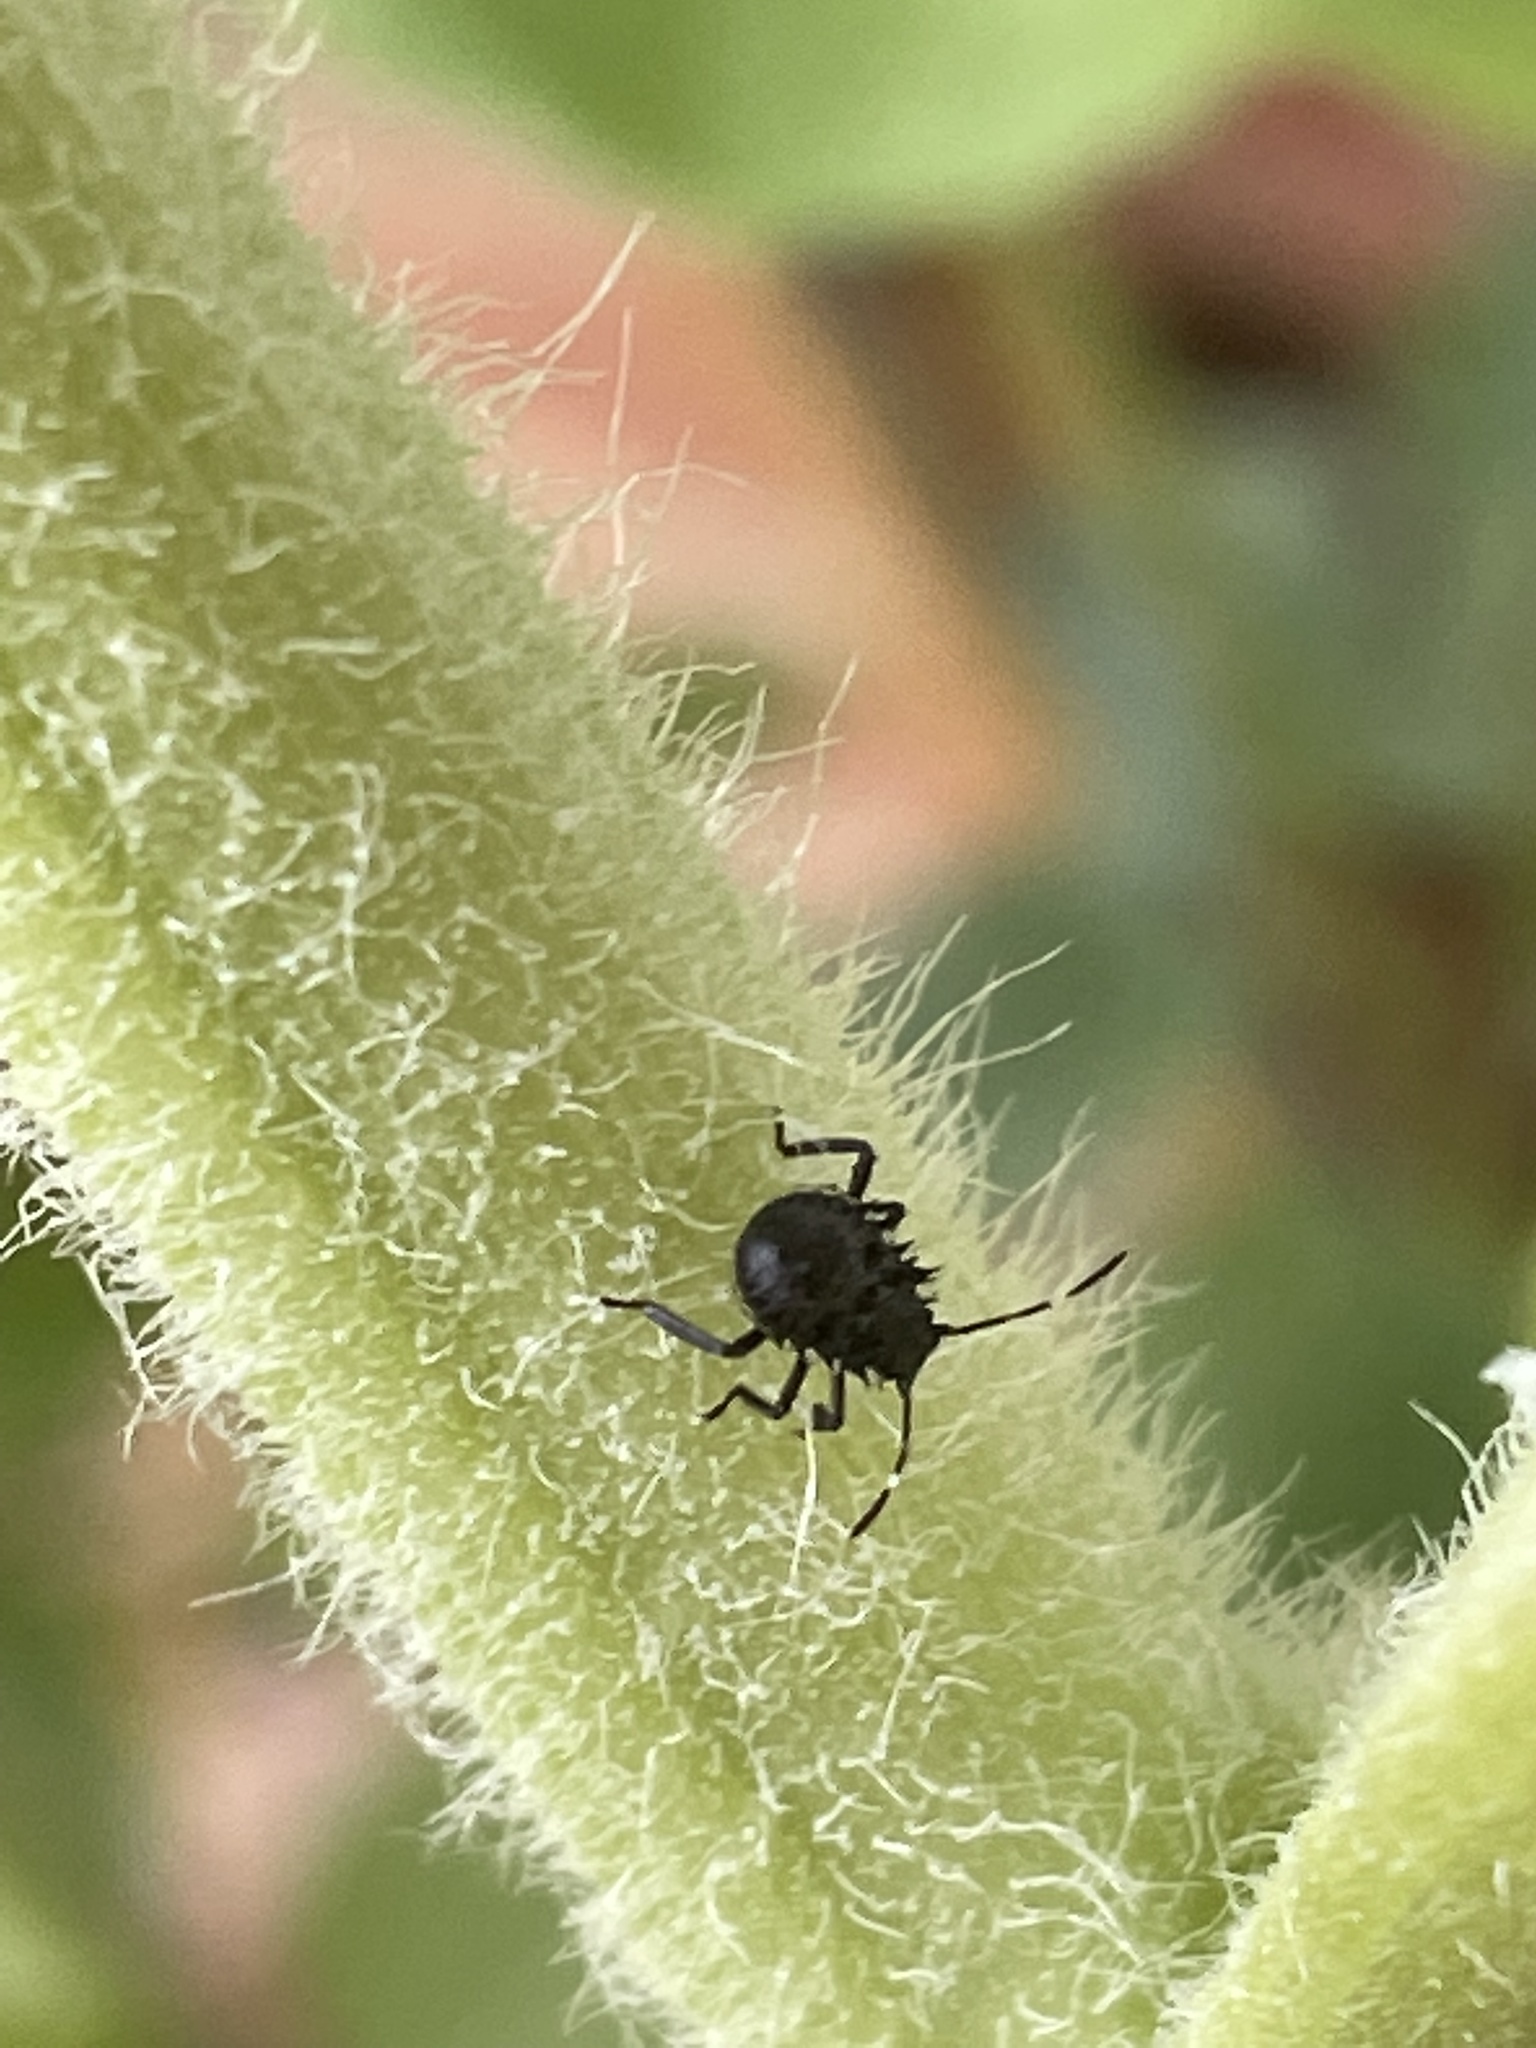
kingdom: Animalia
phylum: Arthropoda
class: Insecta
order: Hemiptera
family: Pentatomidae
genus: Halyomorpha
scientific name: Halyomorpha halys
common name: Brown marmorated stink bug
